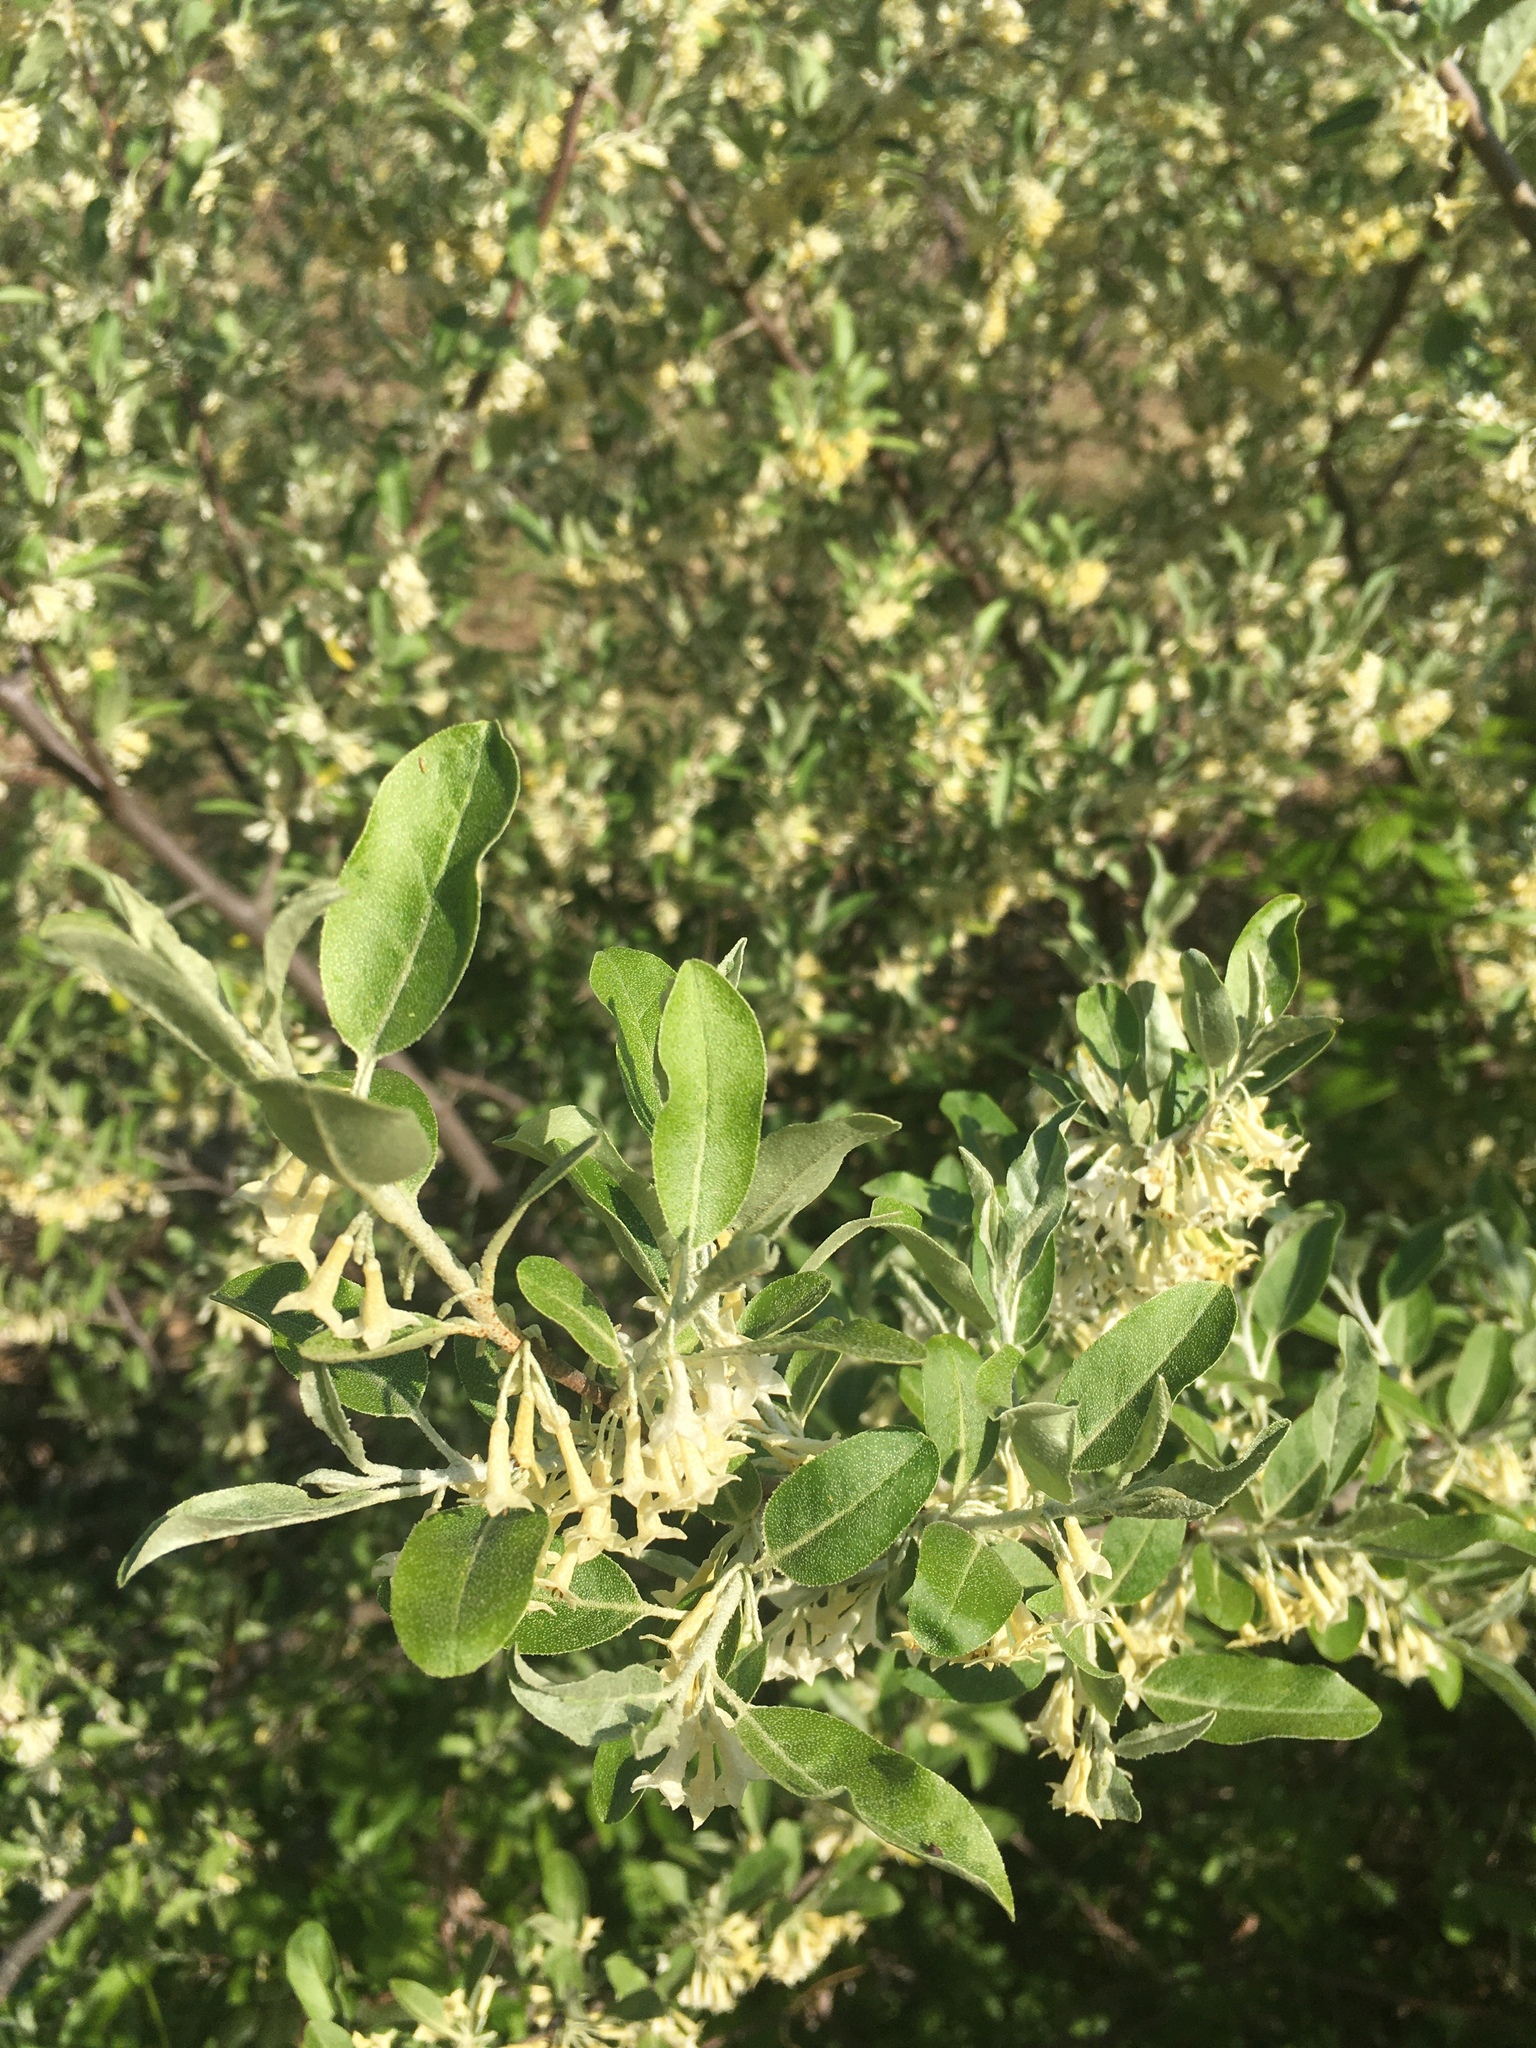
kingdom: Plantae
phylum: Tracheophyta
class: Magnoliopsida
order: Rosales
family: Elaeagnaceae
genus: Elaeagnus
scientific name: Elaeagnus umbellata
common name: Autumn olive
